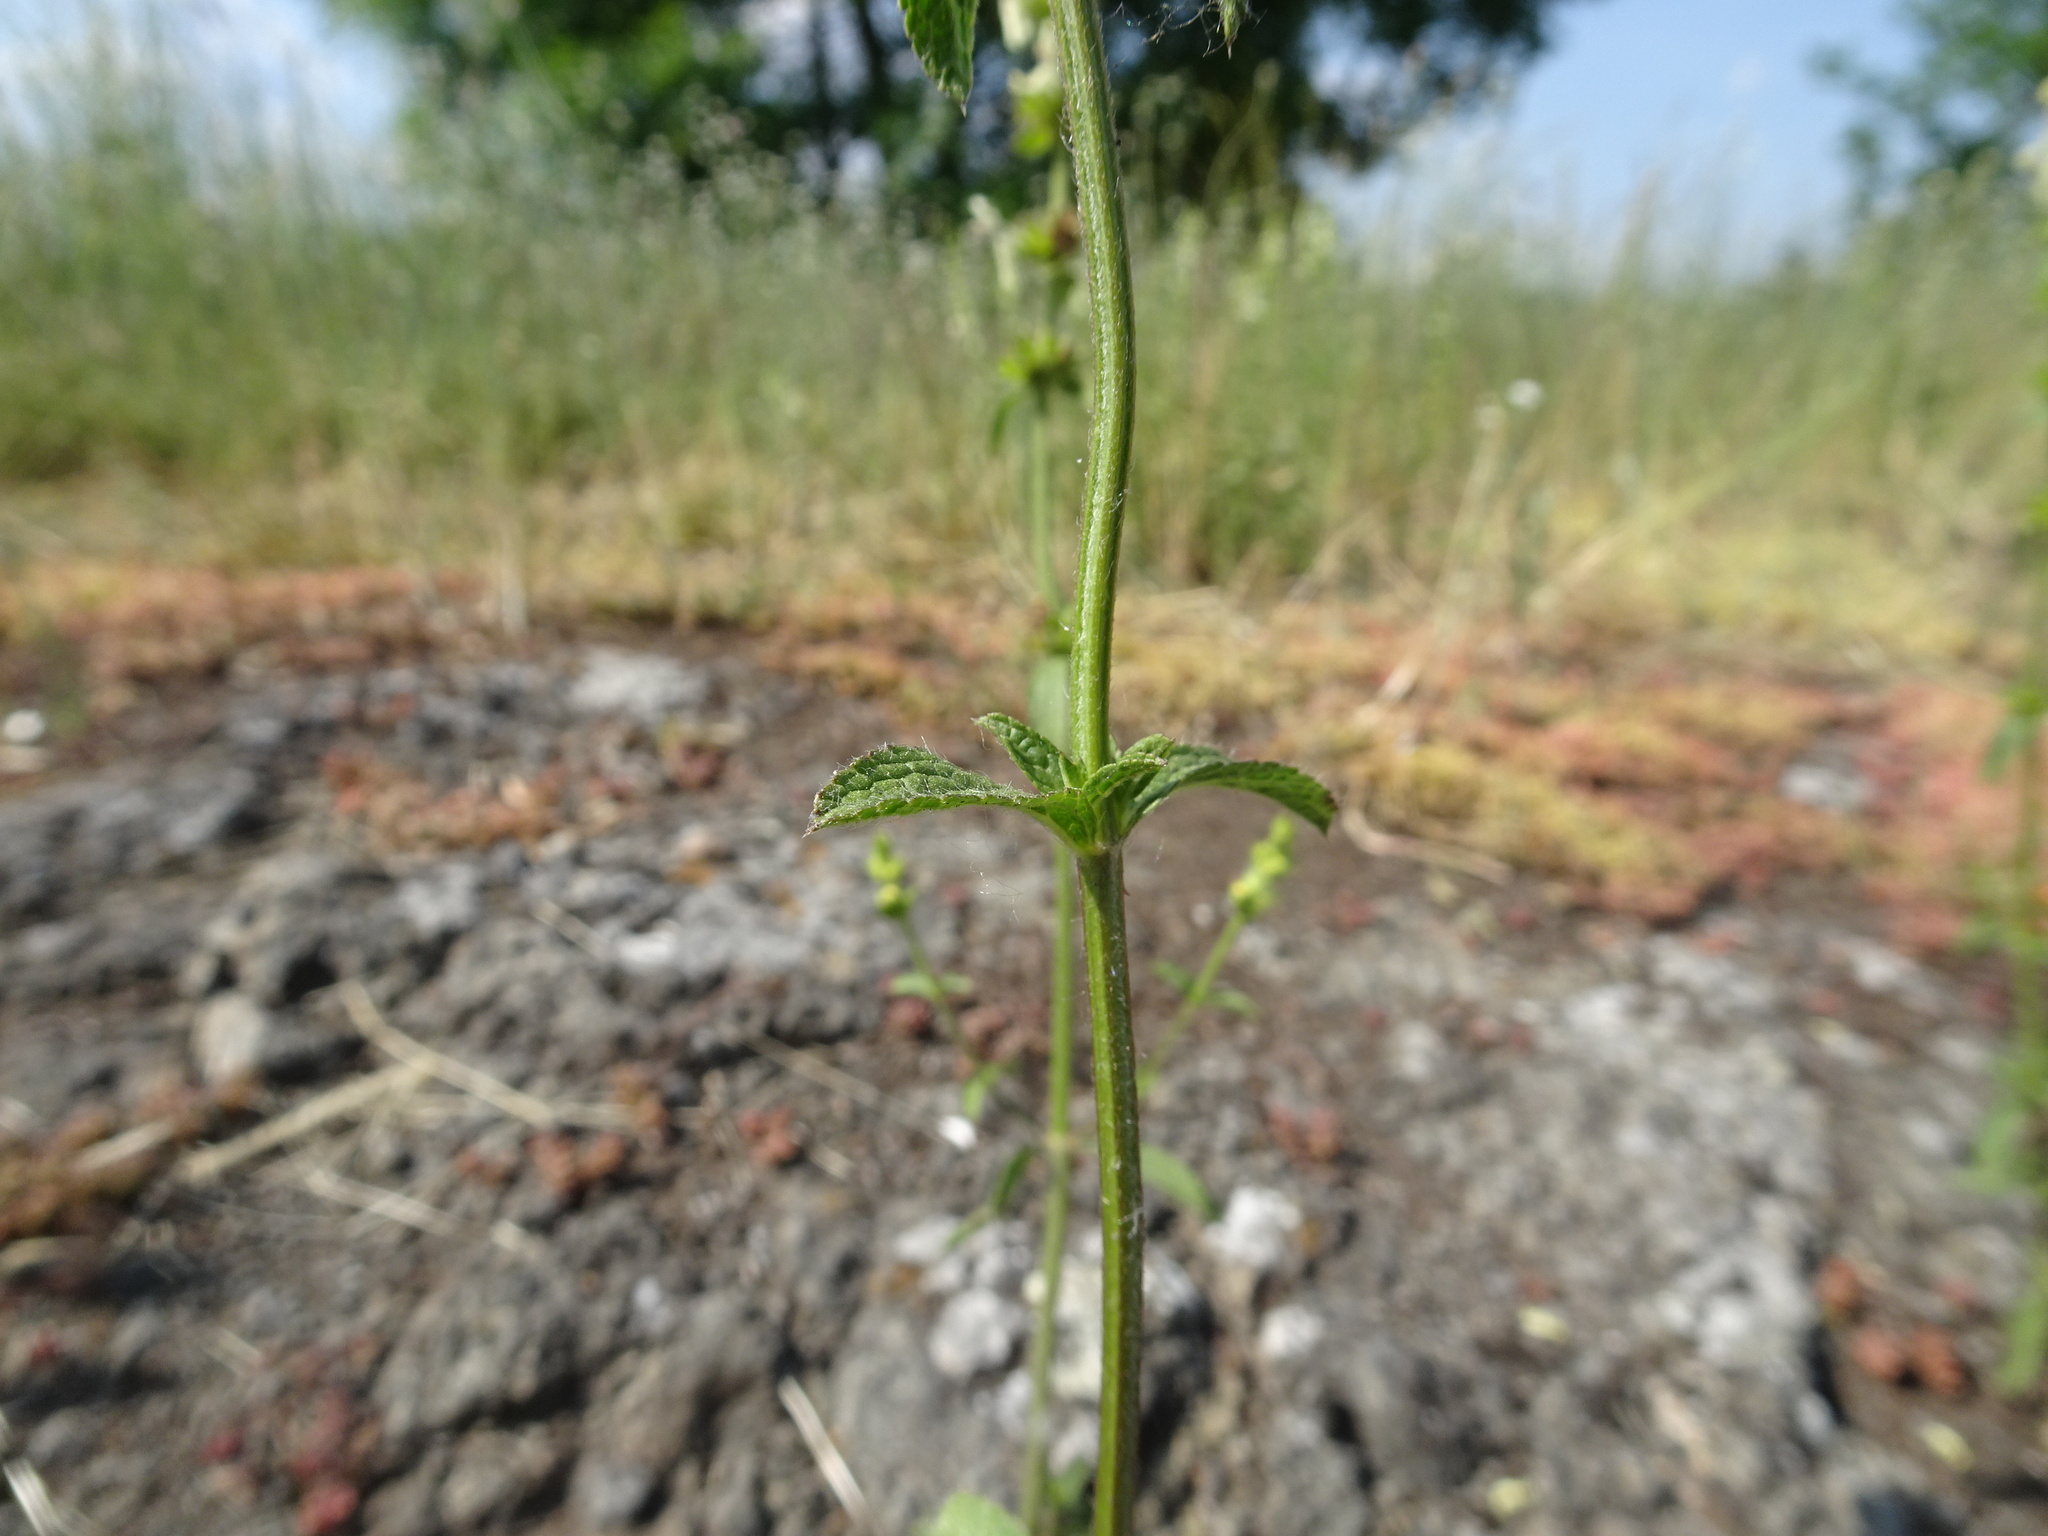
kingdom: Plantae
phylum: Tracheophyta
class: Magnoliopsida
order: Lamiales
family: Lamiaceae
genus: Stachys
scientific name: Stachys recta
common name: Perennial yellow-woundwort
